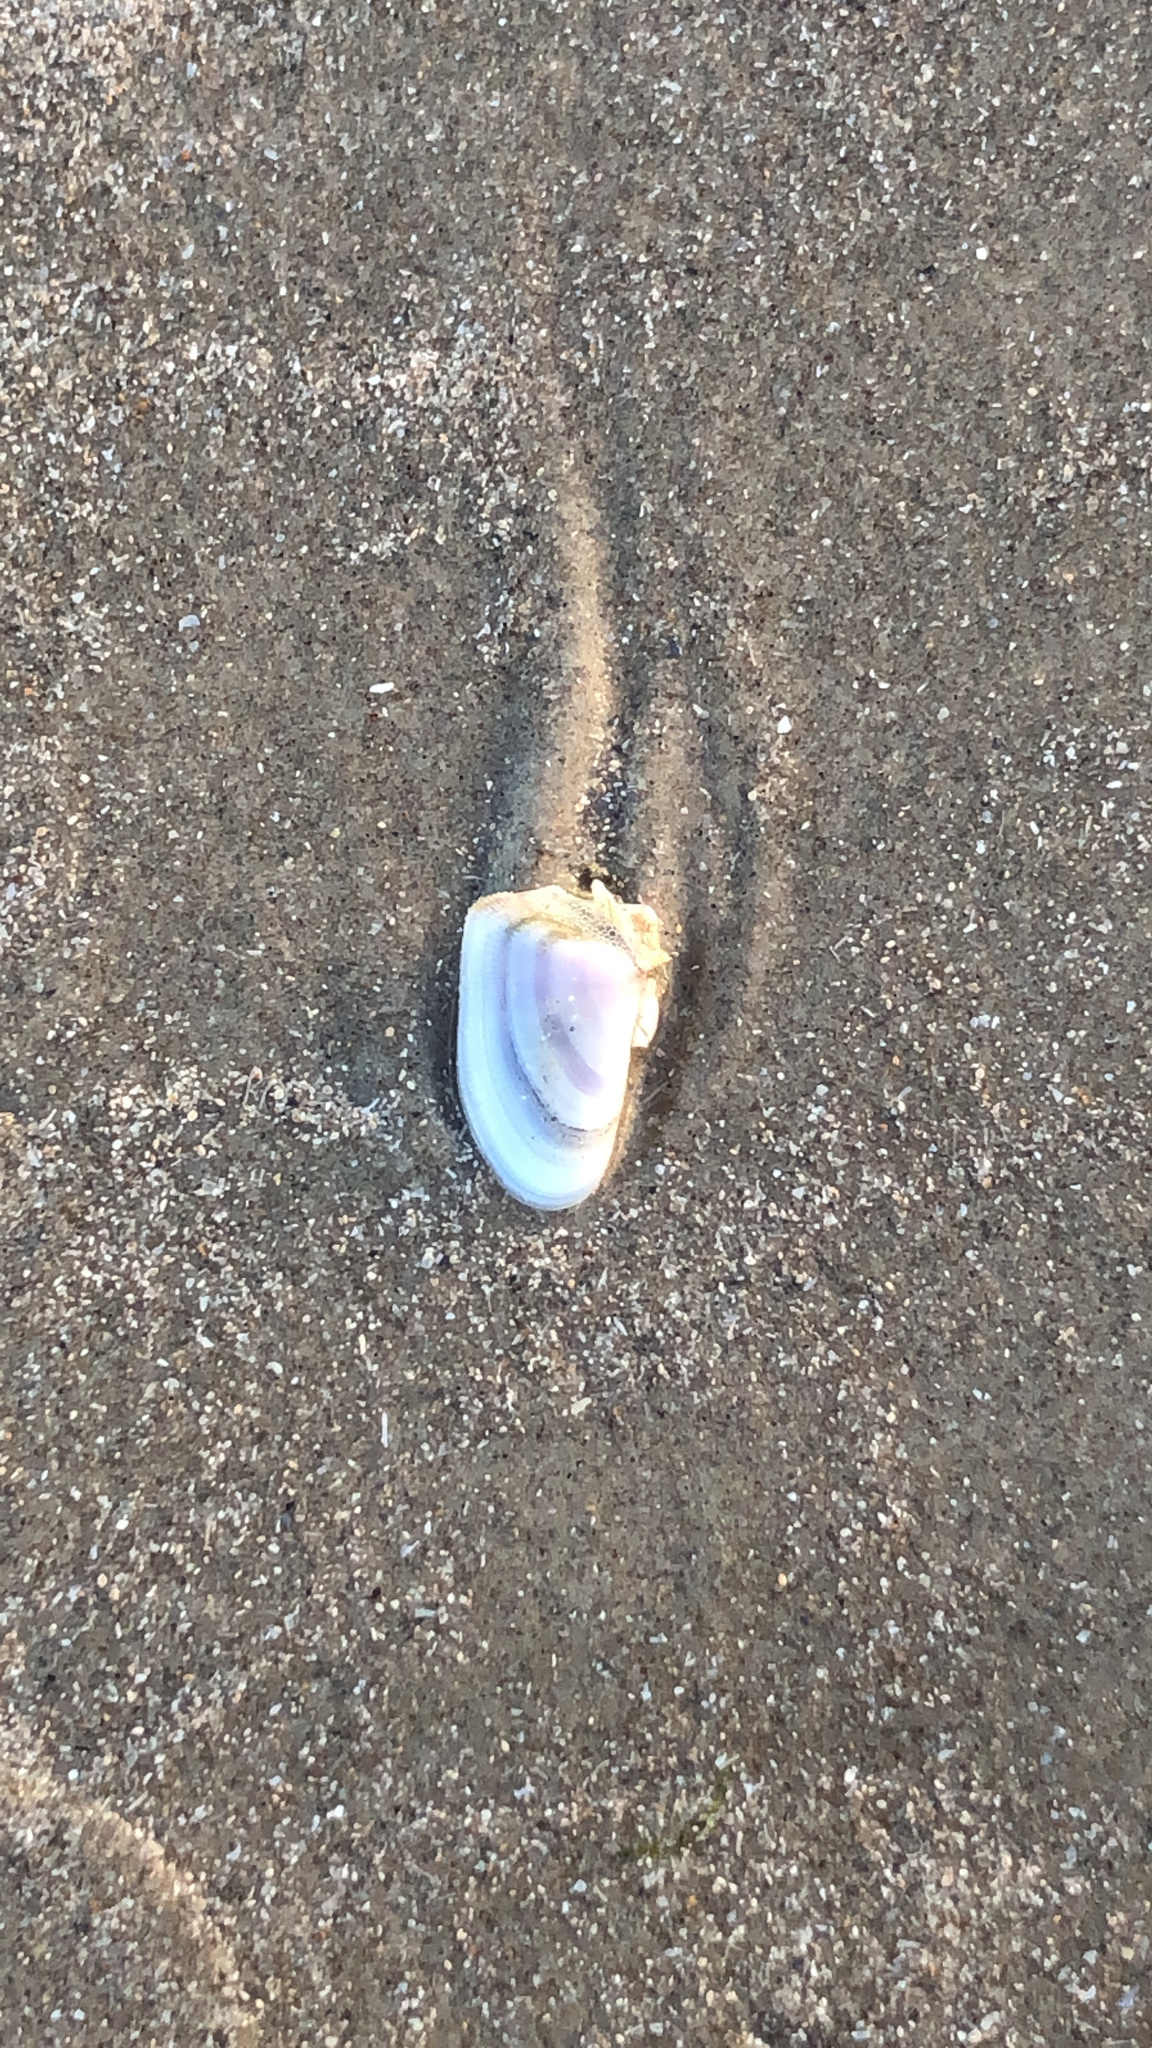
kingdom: Animalia
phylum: Mollusca
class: Bivalvia
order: Cardiida
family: Donacidae
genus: Donax
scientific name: Donax variabilis
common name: Butterfly shell
